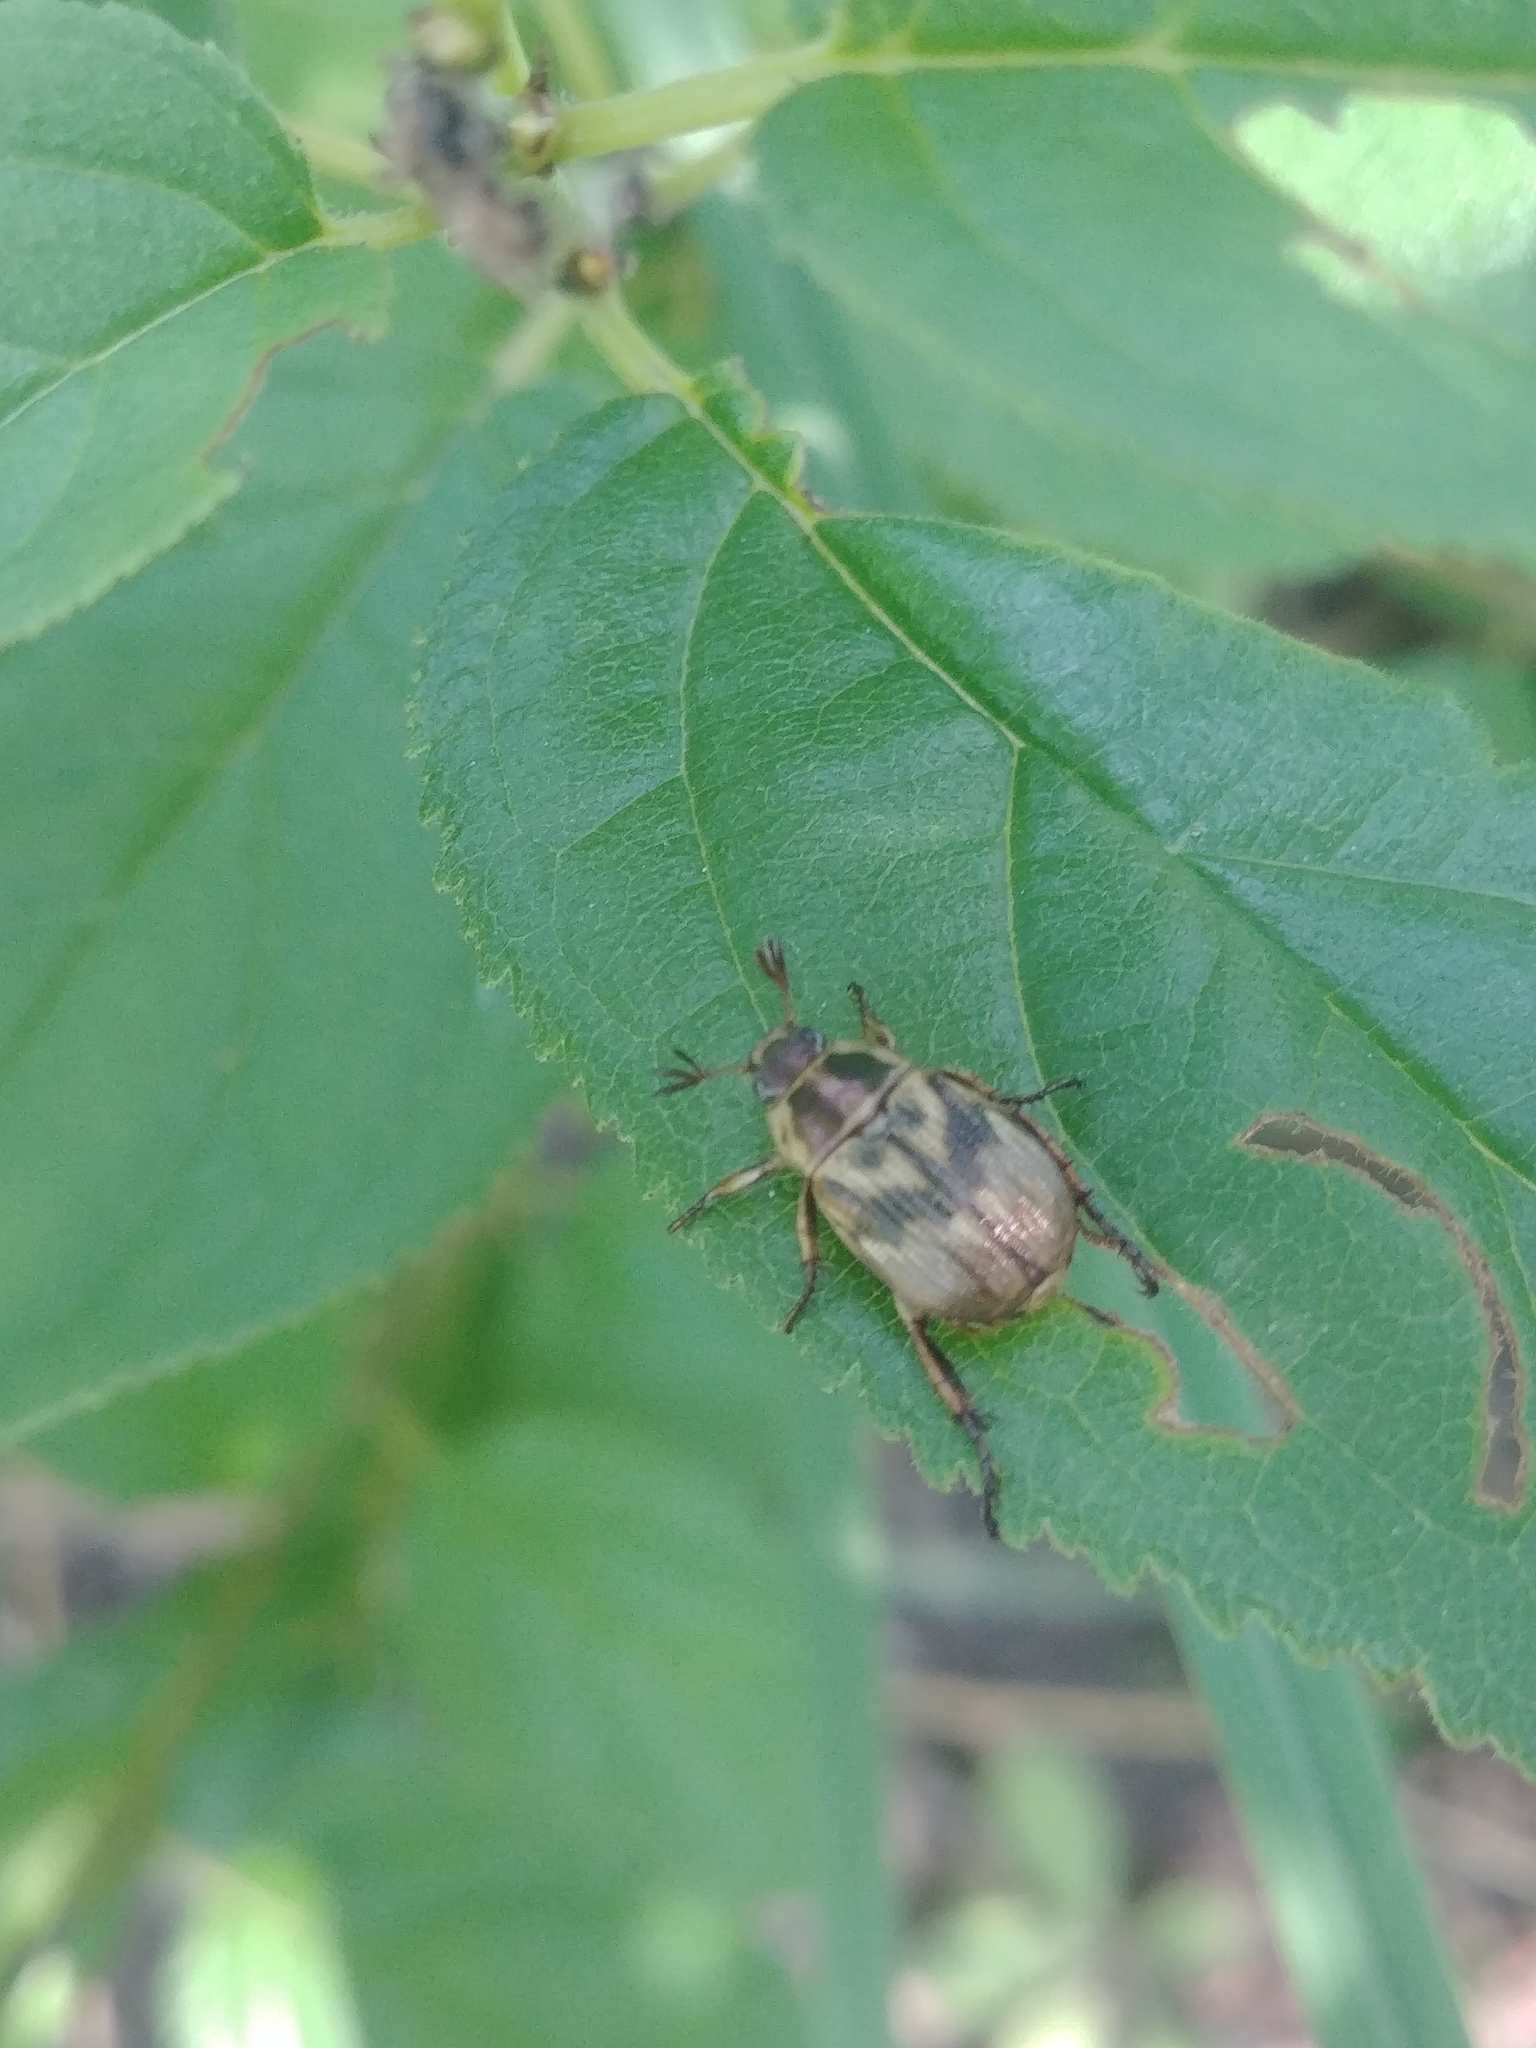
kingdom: Animalia
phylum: Arthropoda
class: Insecta
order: Coleoptera
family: Scarabaeidae
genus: Exomala
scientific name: Exomala orientalis
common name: Oriental beetle
